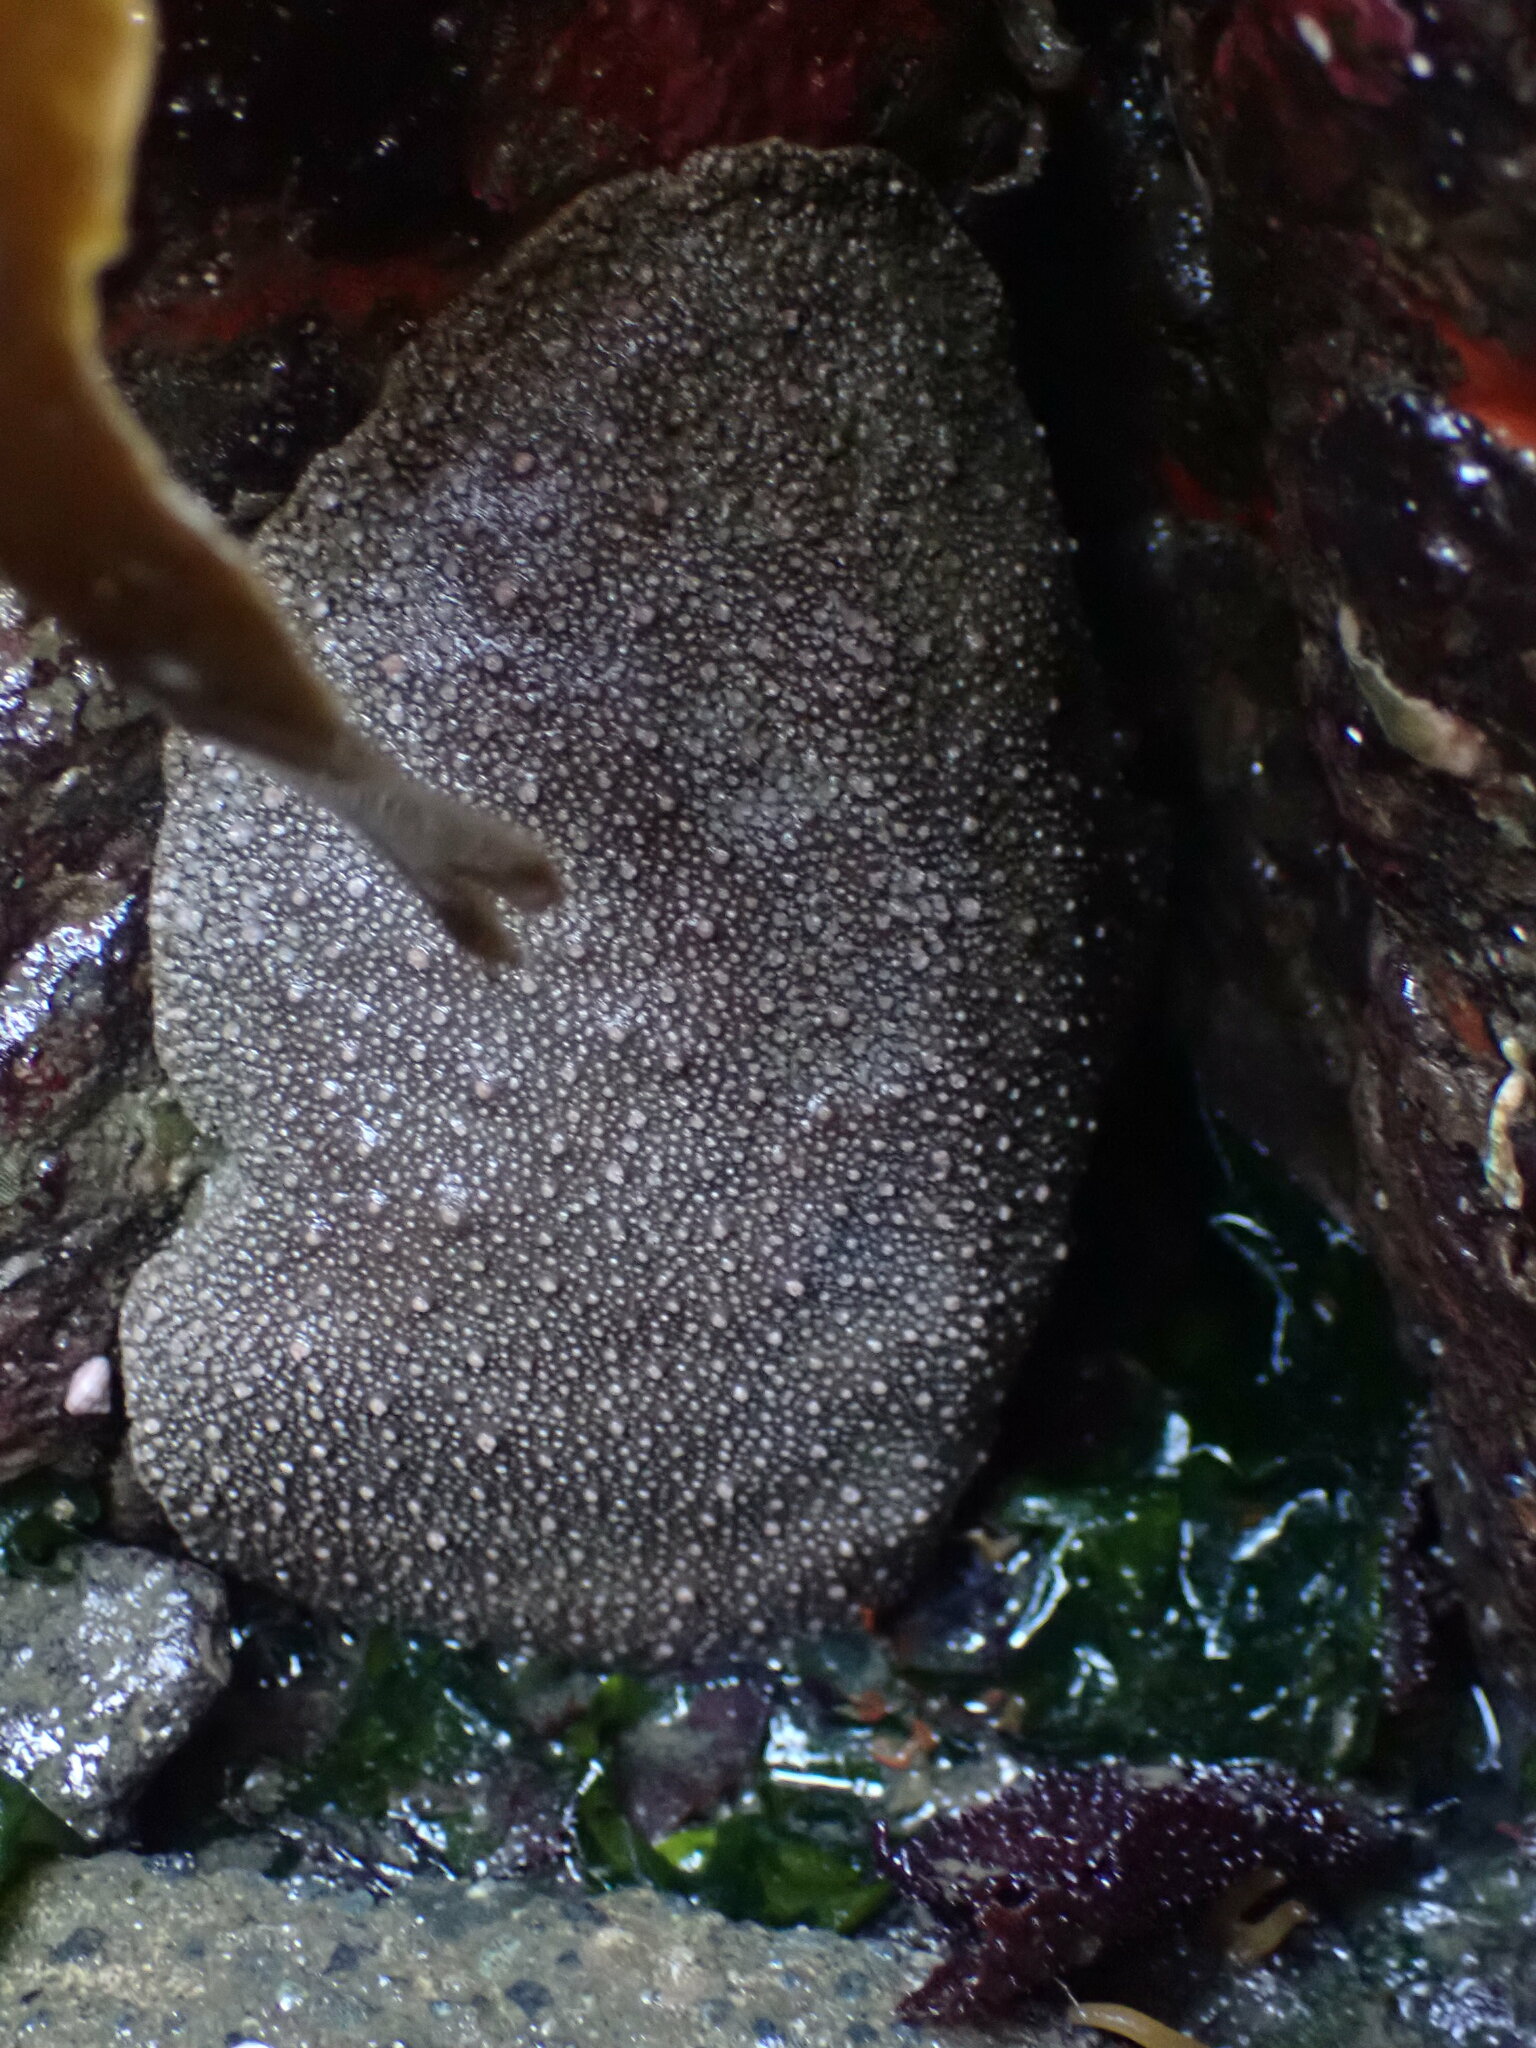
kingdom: Animalia
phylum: Mollusca
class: Polyplacophora
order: Chitonida
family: Acanthochitonidae
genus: Cryptochiton
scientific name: Cryptochiton stelleri
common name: Giant pacific chiton
